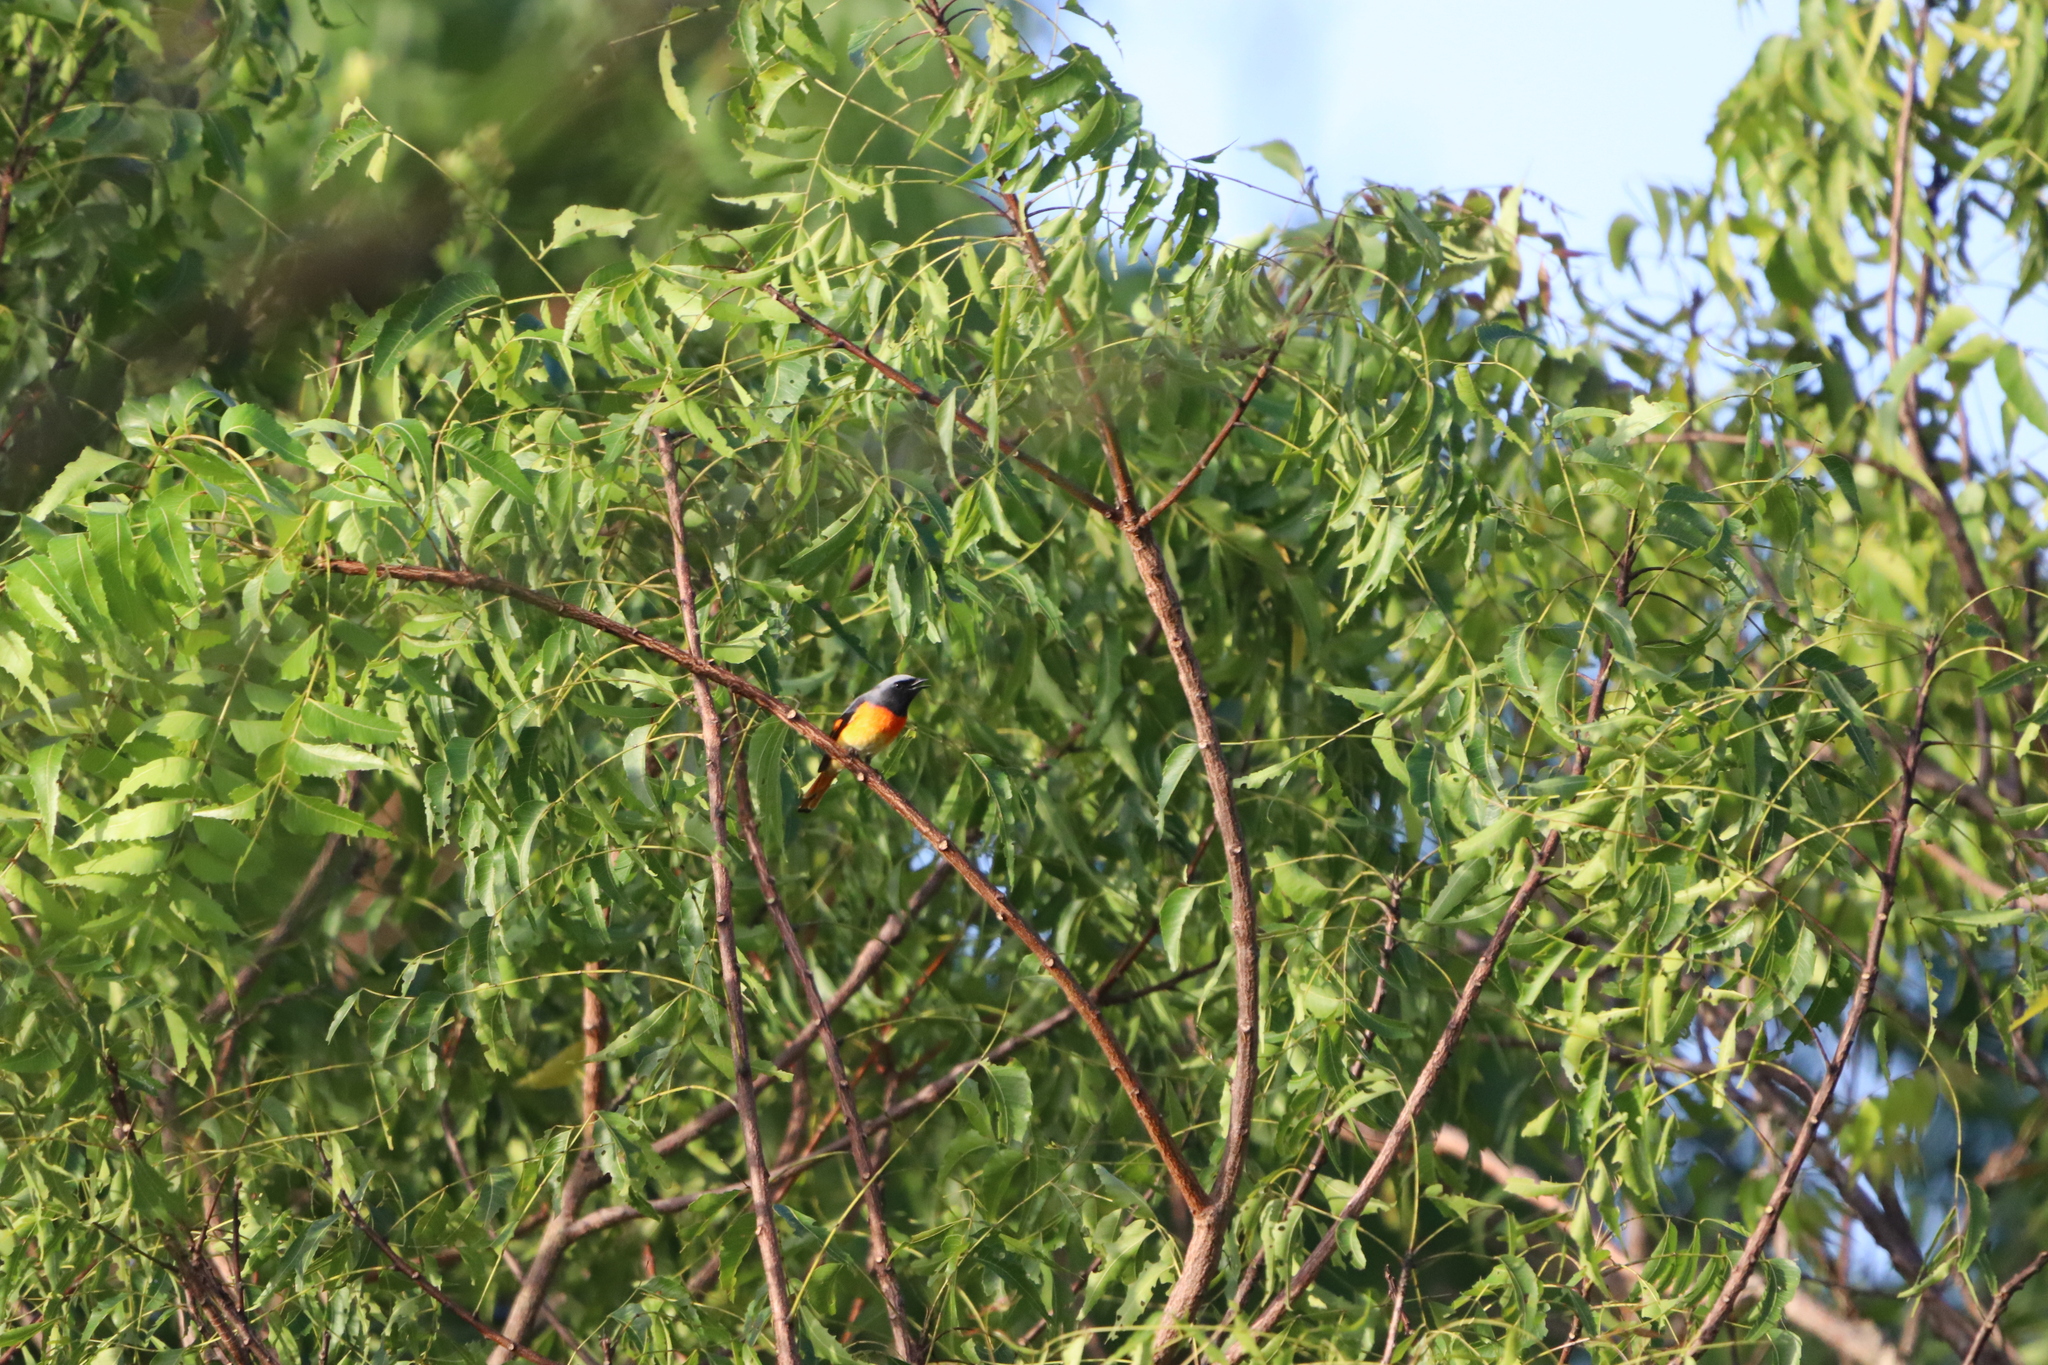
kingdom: Animalia
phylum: Chordata
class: Aves
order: Passeriformes
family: Campephagidae
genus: Pericrocotus
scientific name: Pericrocotus cinnamomeus
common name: Small minivet
